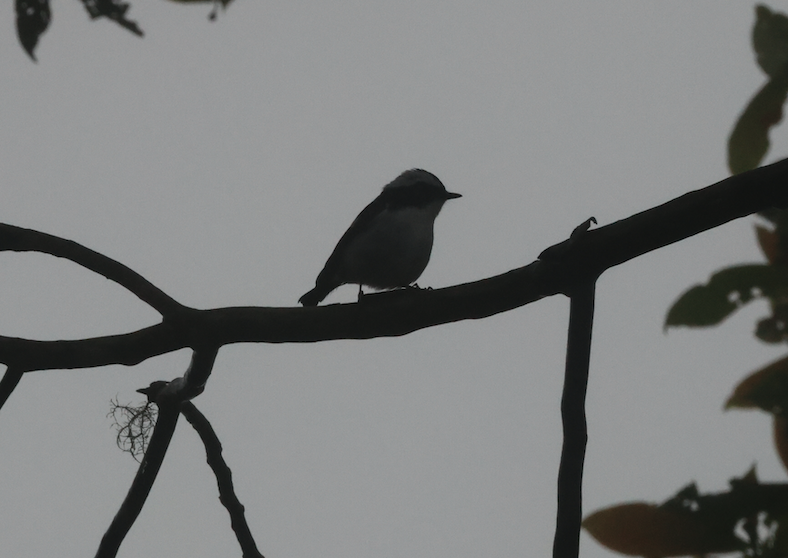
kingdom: Animalia
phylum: Chordata
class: Aves
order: Passeriformes
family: Muscicapidae
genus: Ficedula
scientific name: Ficedula westermanni
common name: Little pied flycatcher
